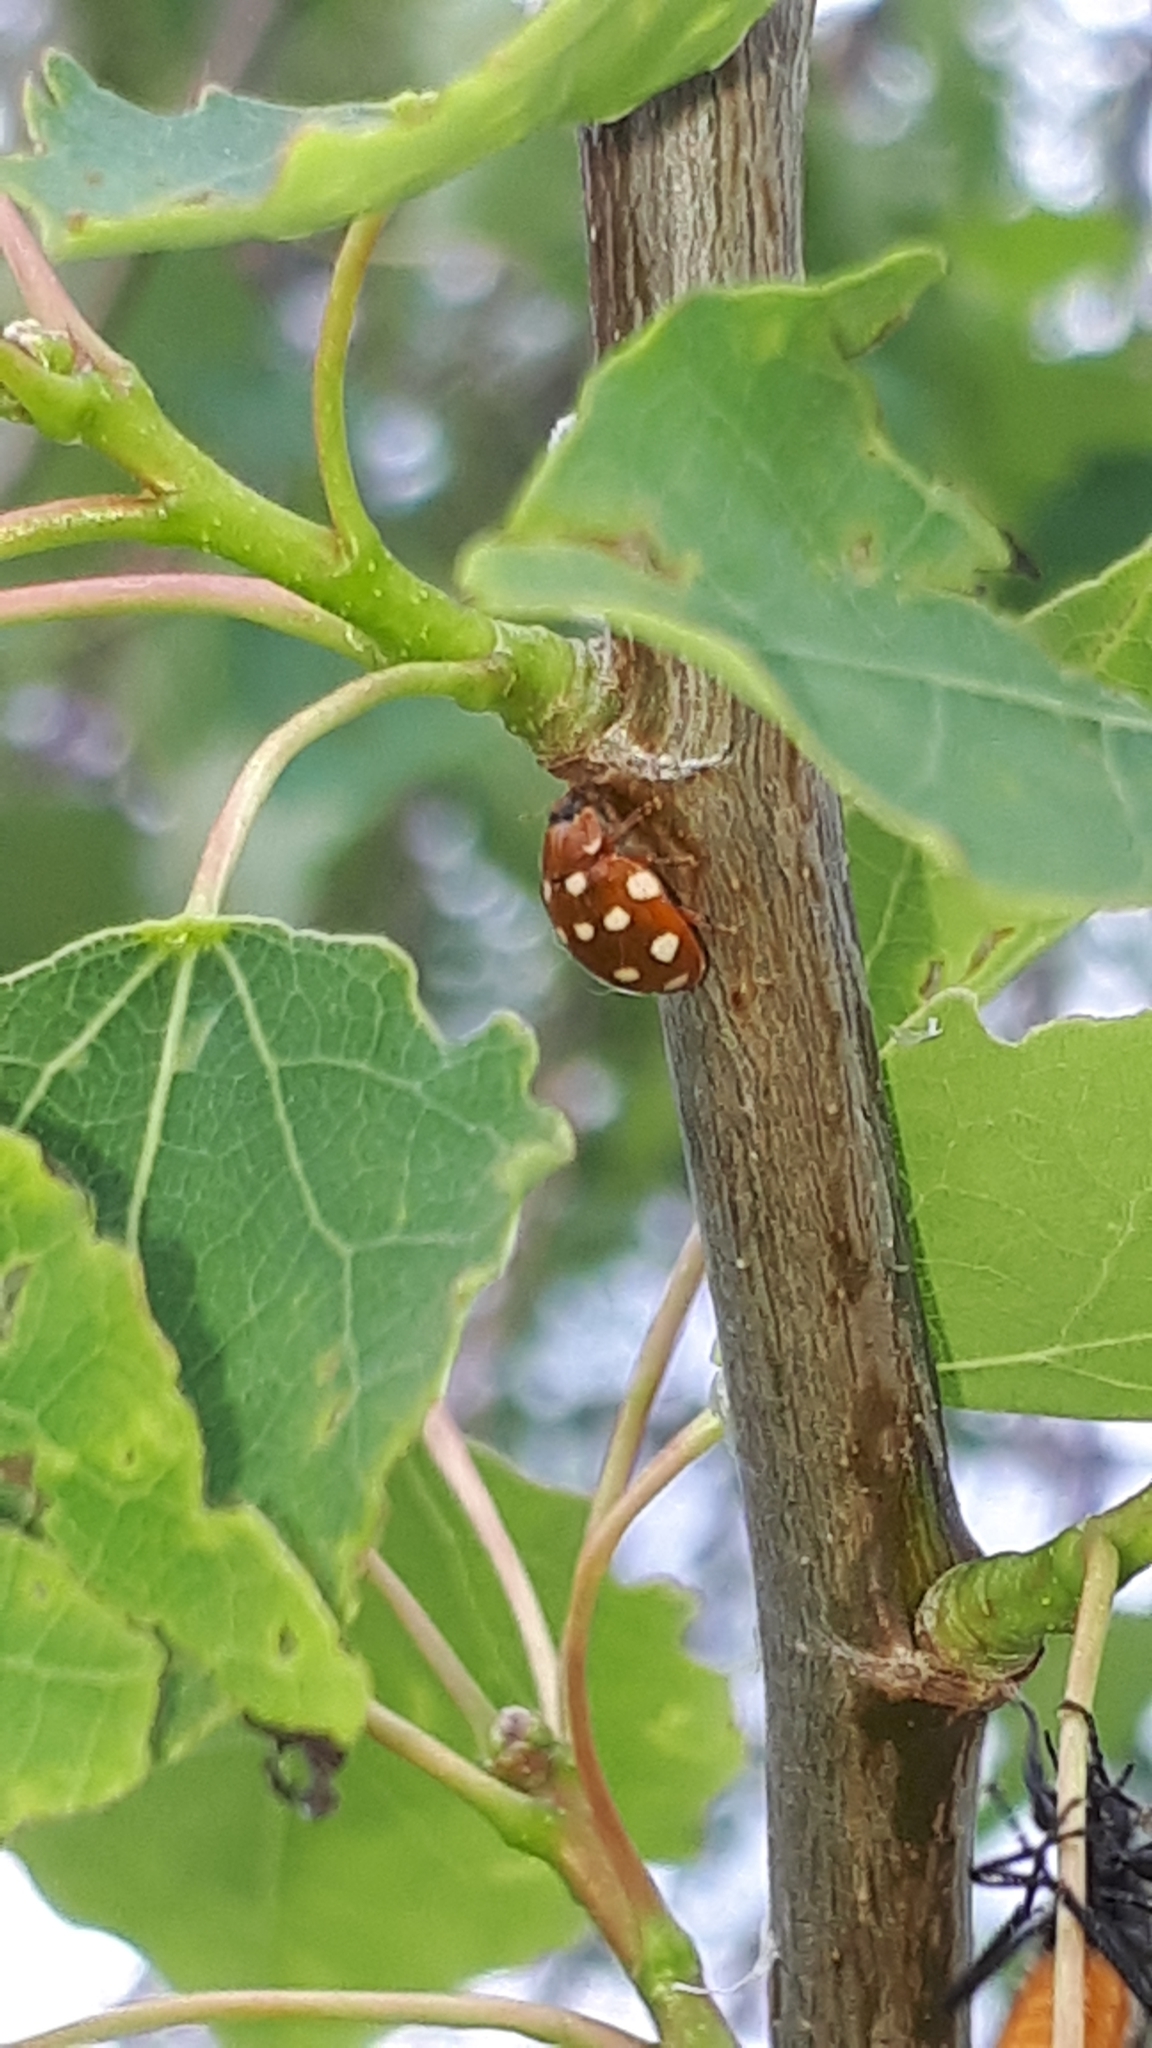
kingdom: Animalia
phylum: Arthropoda
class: Insecta
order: Coleoptera
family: Coccinellidae
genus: Calvia
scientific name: Calvia quatuordecimguttata
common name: Cream-spot ladybird
